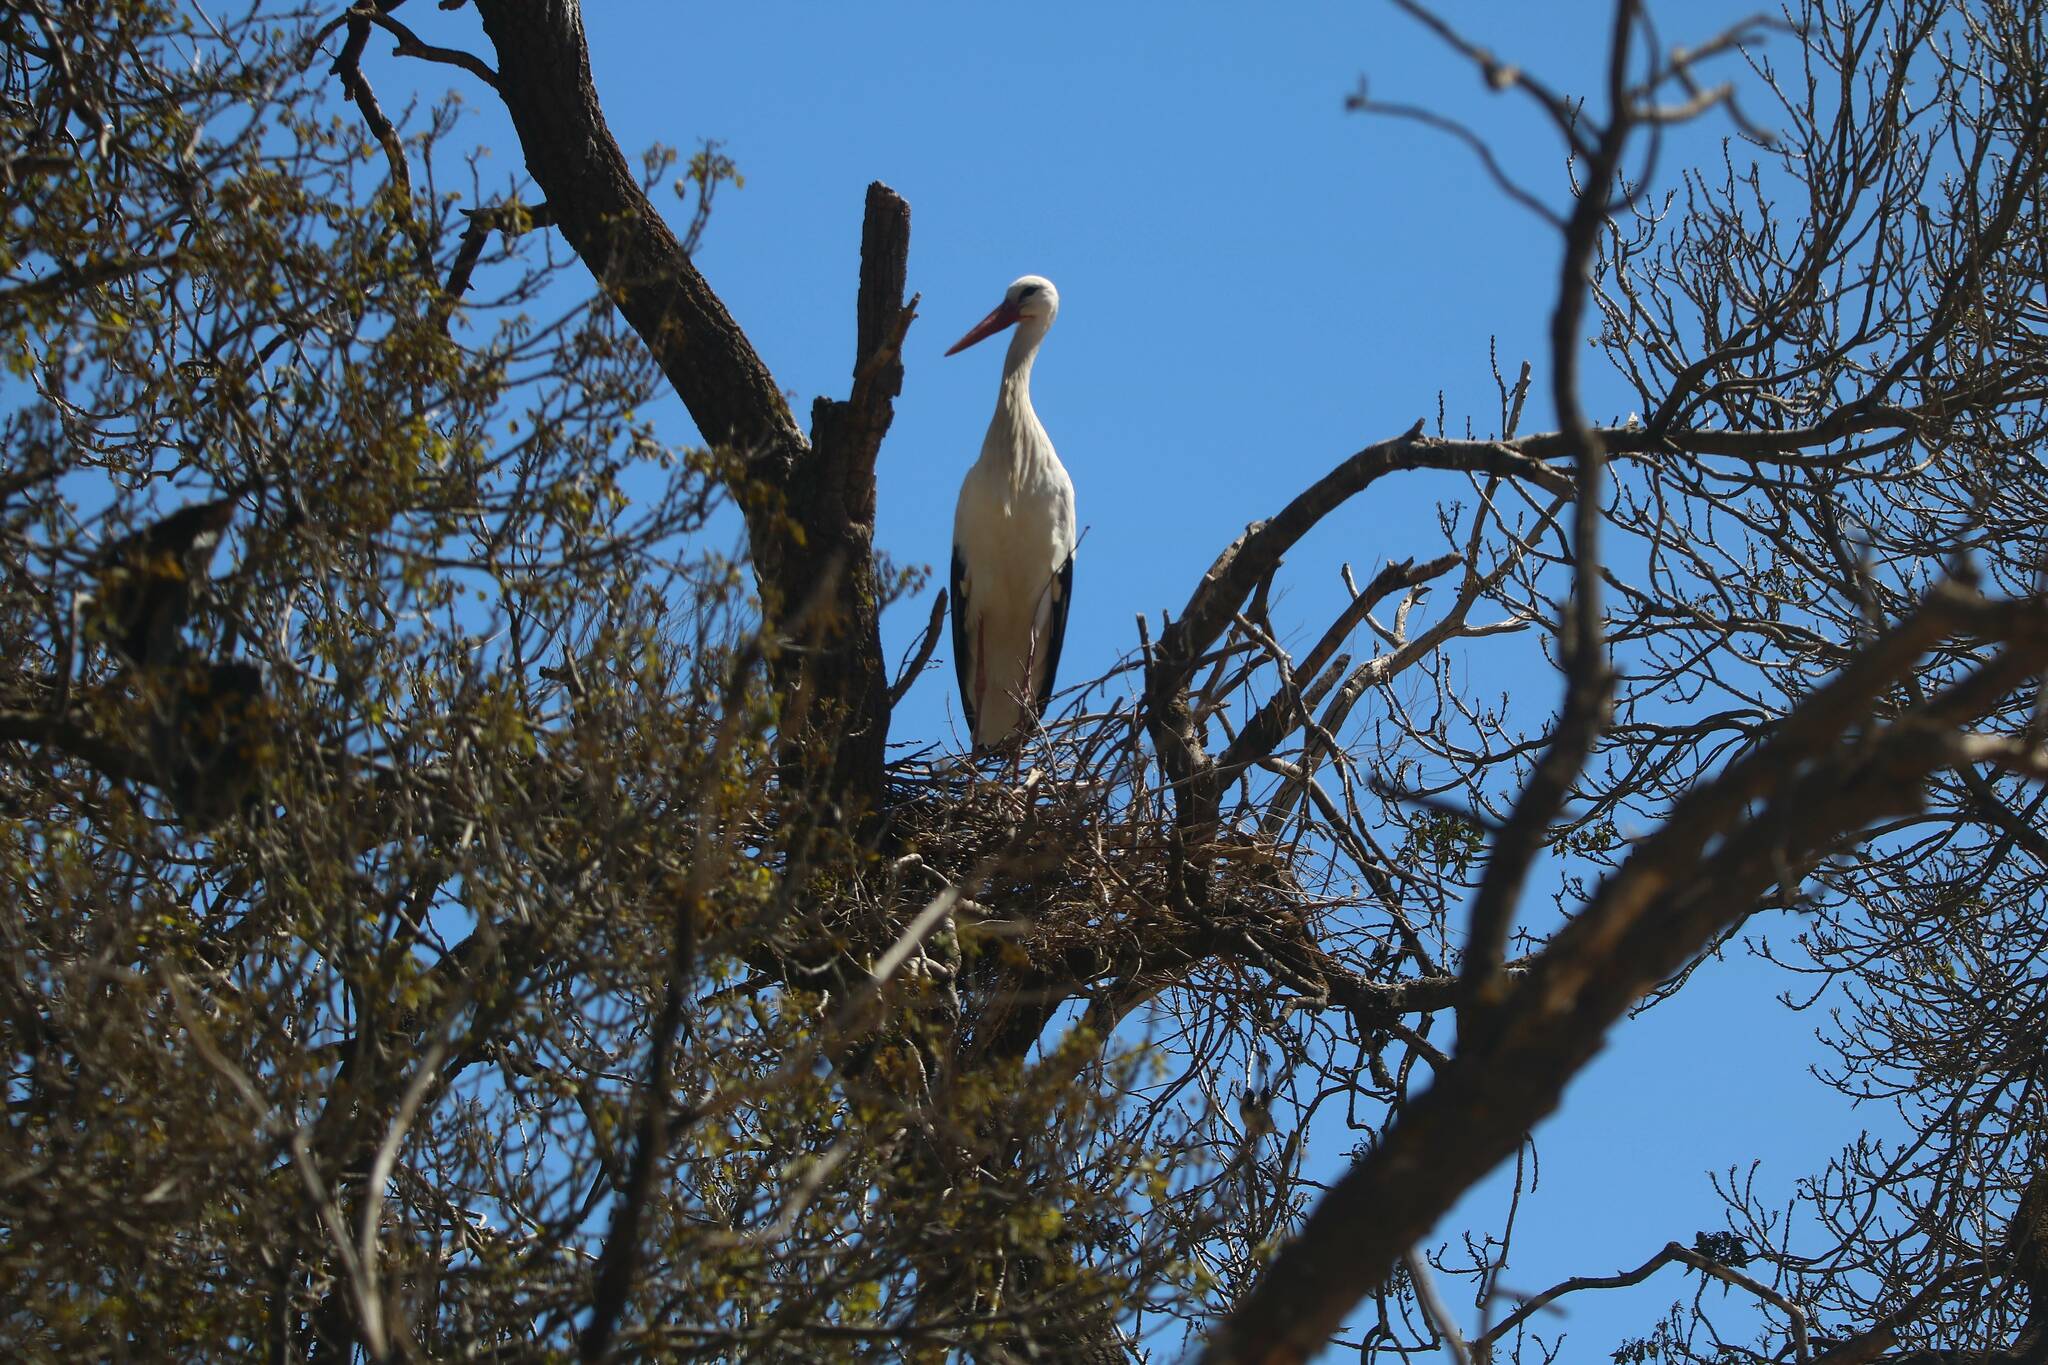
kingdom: Animalia
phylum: Chordata
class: Aves
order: Ciconiiformes
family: Ciconiidae
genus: Ciconia
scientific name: Ciconia ciconia
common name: White stork
